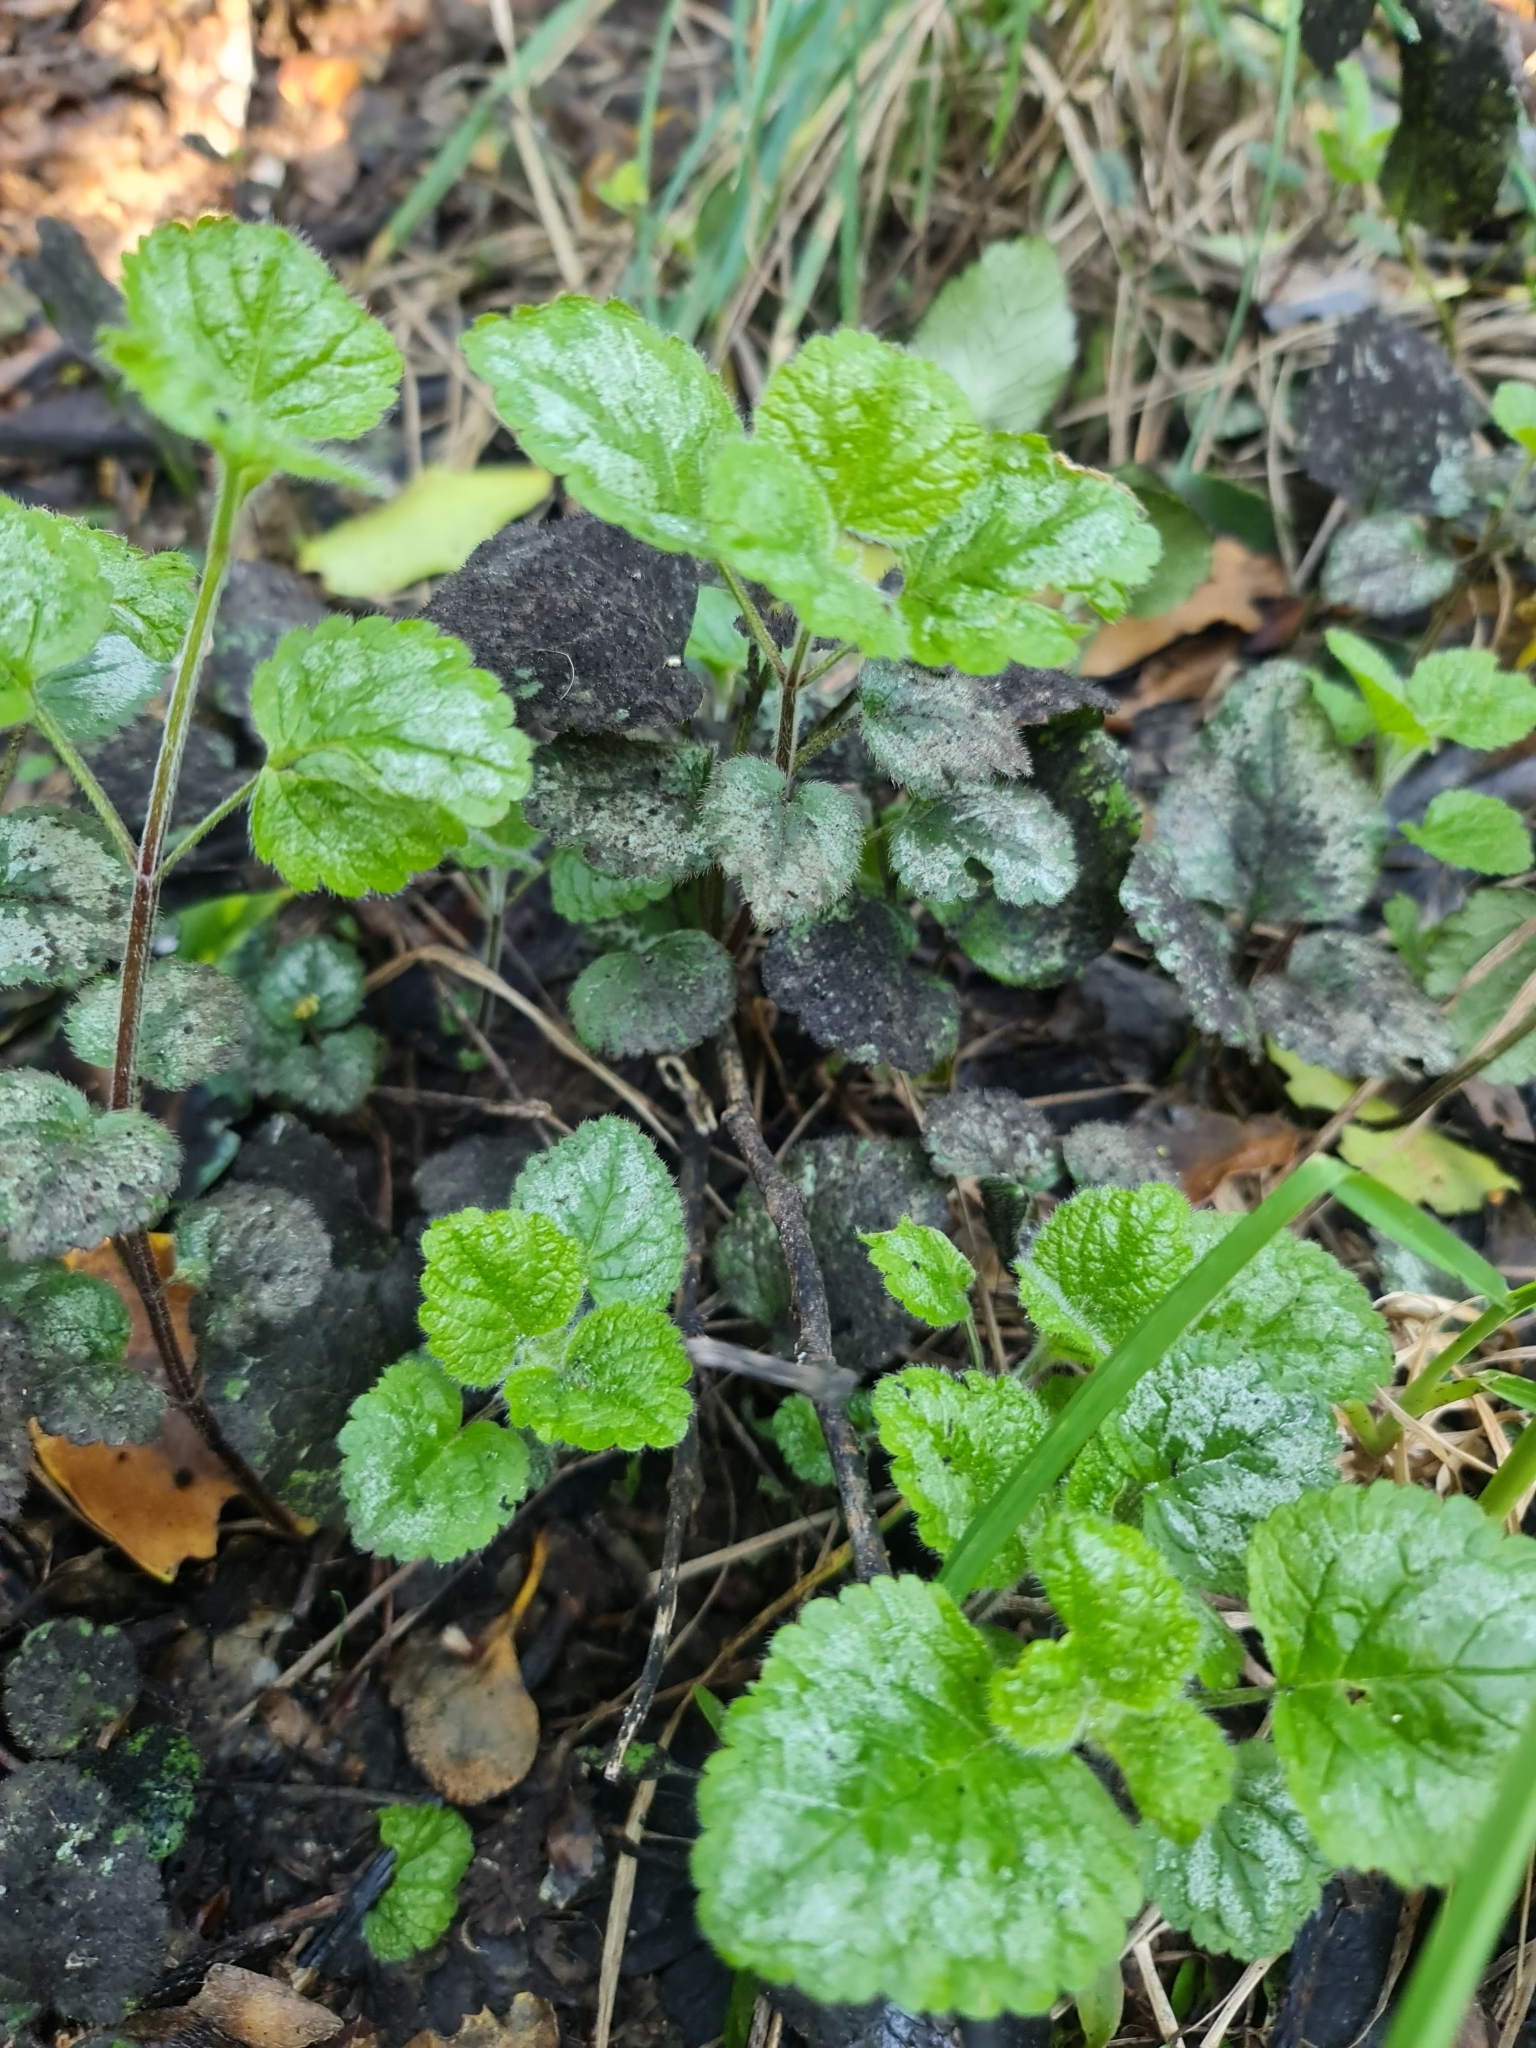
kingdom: Plantae
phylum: Tracheophyta
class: Magnoliopsida
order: Lamiales
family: Lamiaceae
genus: Lamium
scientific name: Lamium galeobdolon
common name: Yellow archangel
